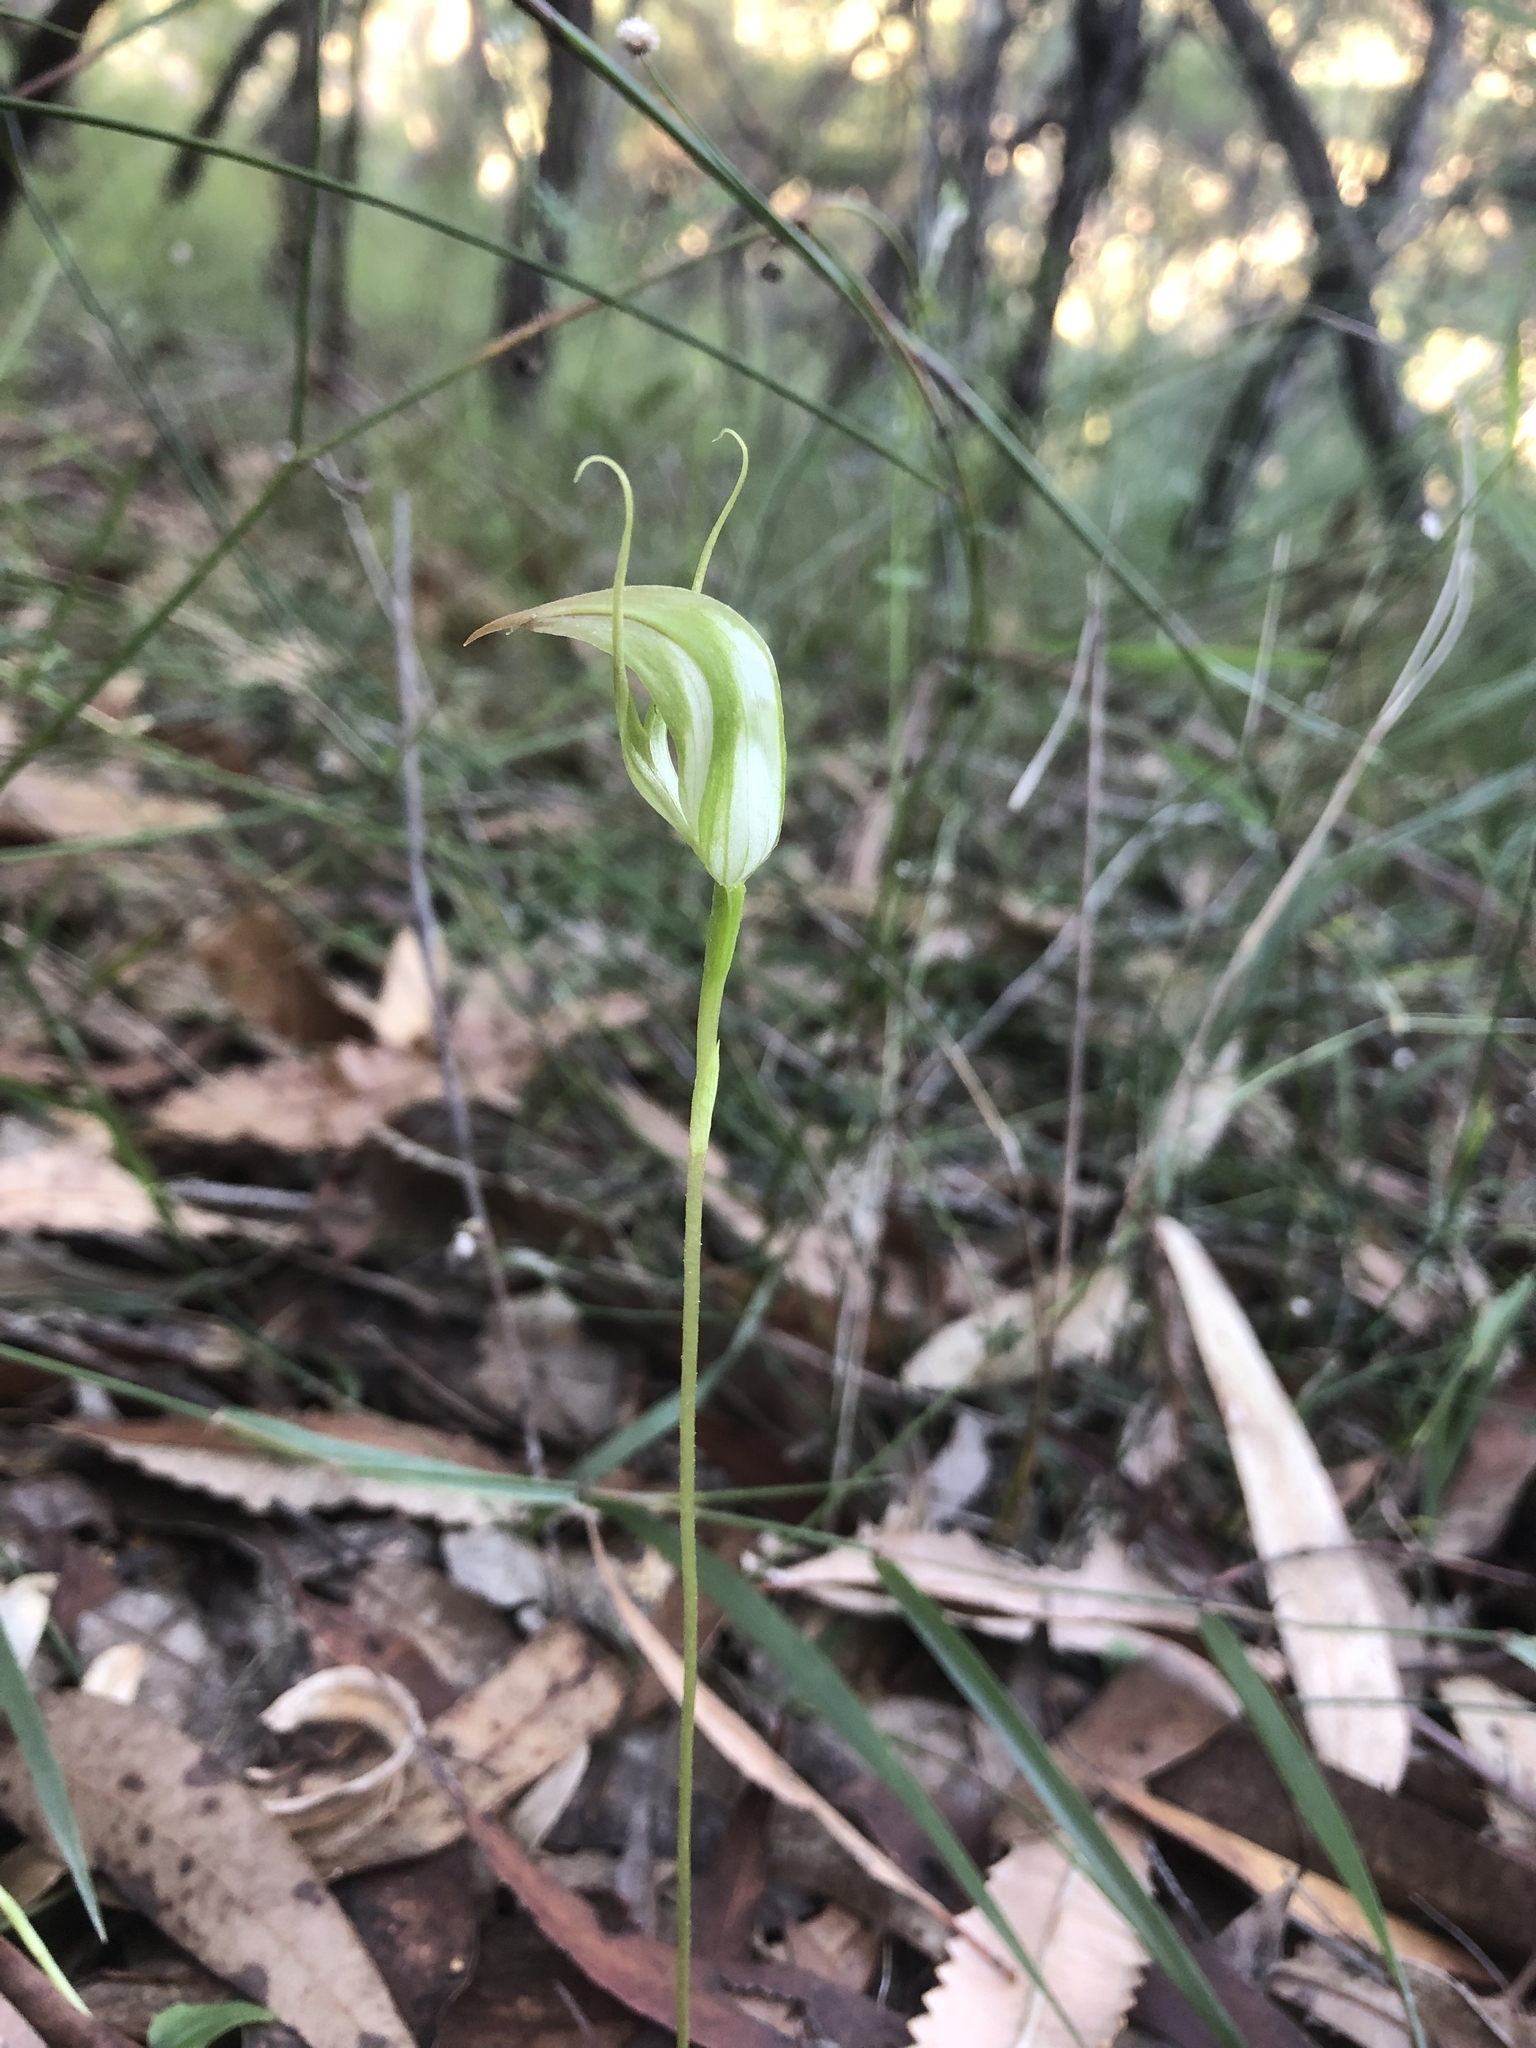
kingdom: Plantae
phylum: Tracheophyta
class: Liliopsida
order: Asparagales
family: Orchidaceae
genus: Pterostylis
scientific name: Pterostylis acuminata
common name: Pointed greenhood
